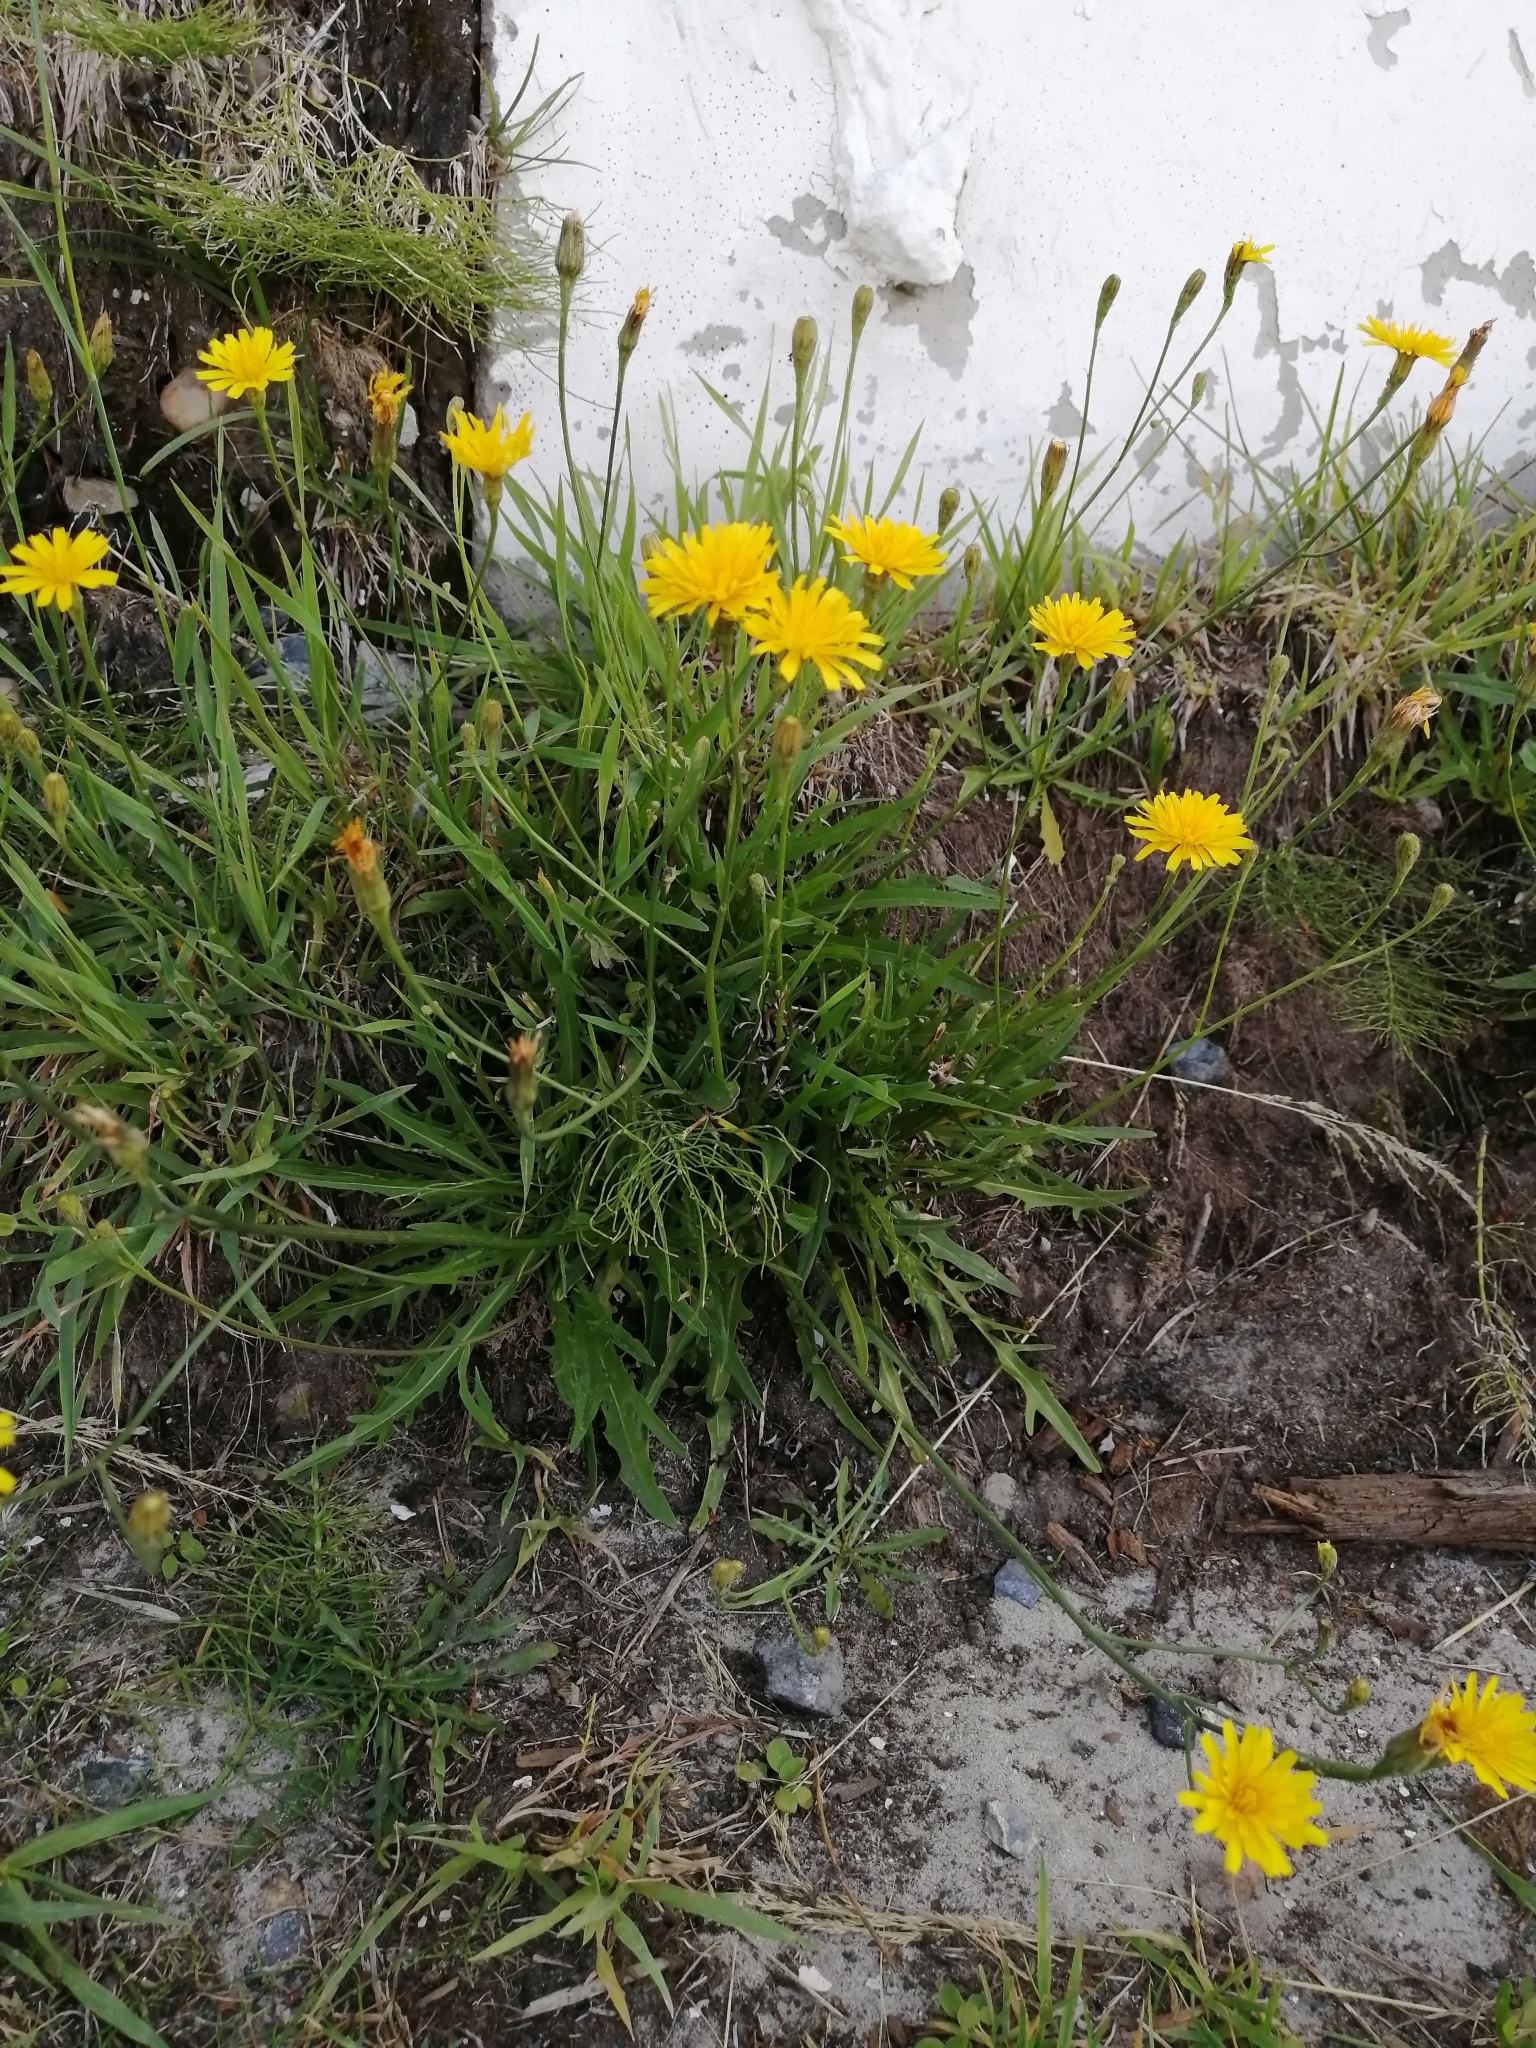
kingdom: Plantae
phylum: Tracheophyta
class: Magnoliopsida
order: Asterales
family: Asteraceae
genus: Scorzoneroides
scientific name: Scorzoneroides autumnalis
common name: Autumn hawkbit
